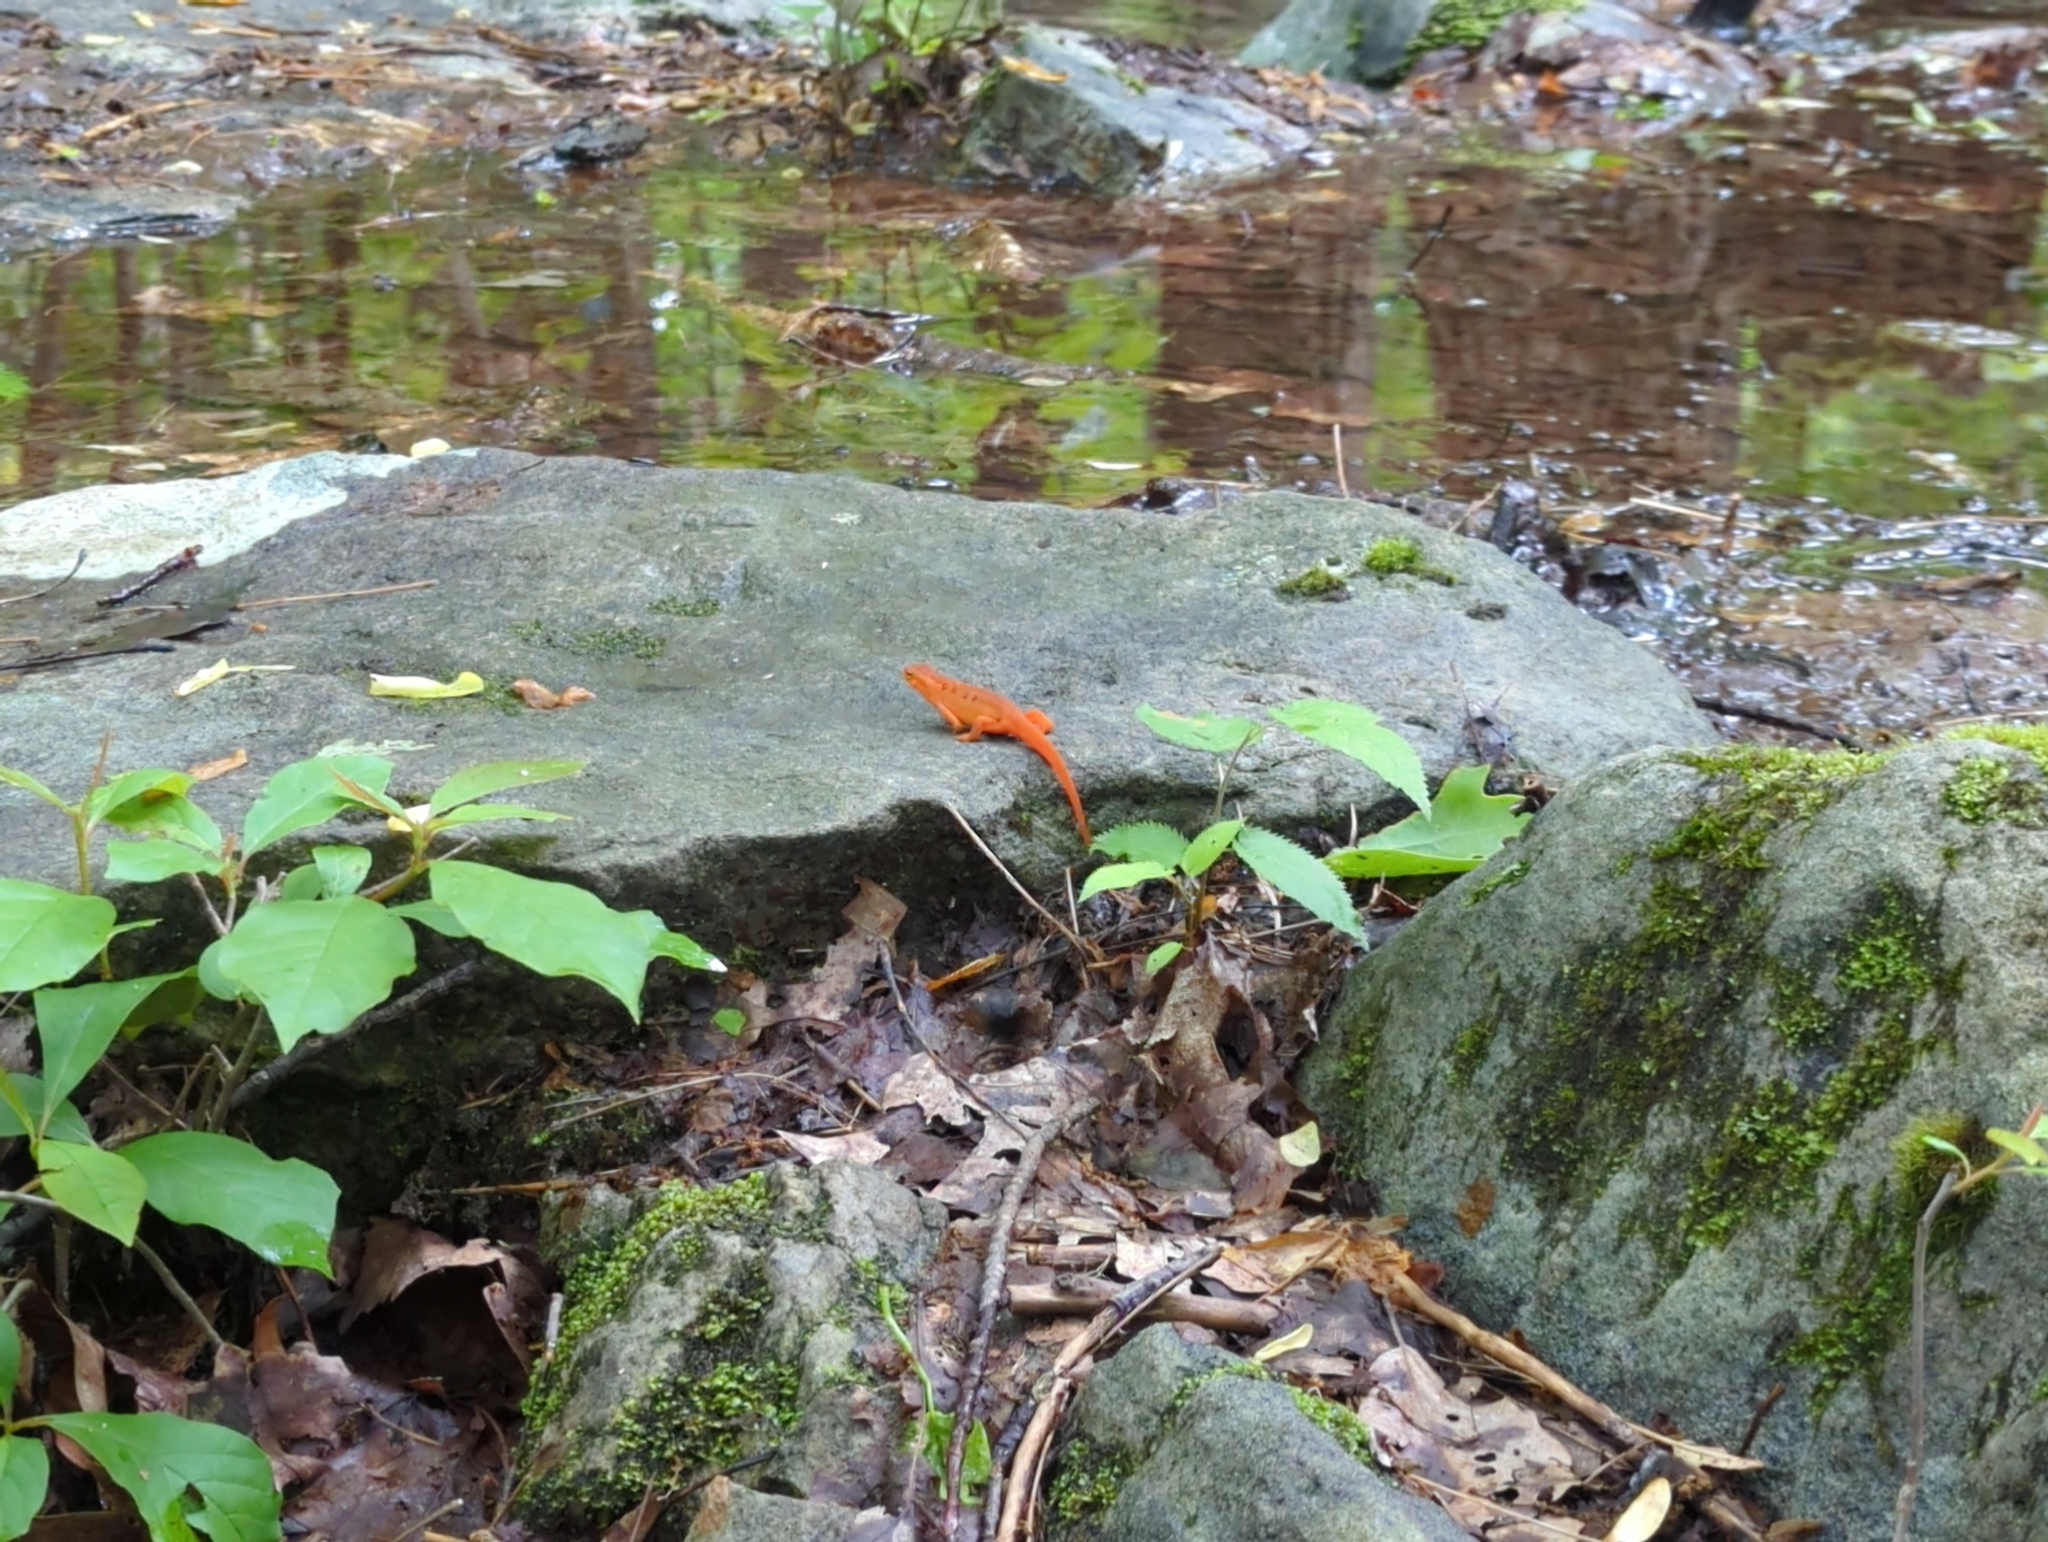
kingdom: Animalia
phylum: Chordata
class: Amphibia
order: Caudata
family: Salamandridae
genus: Notophthalmus
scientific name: Notophthalmus viridescens
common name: Eastern newt
